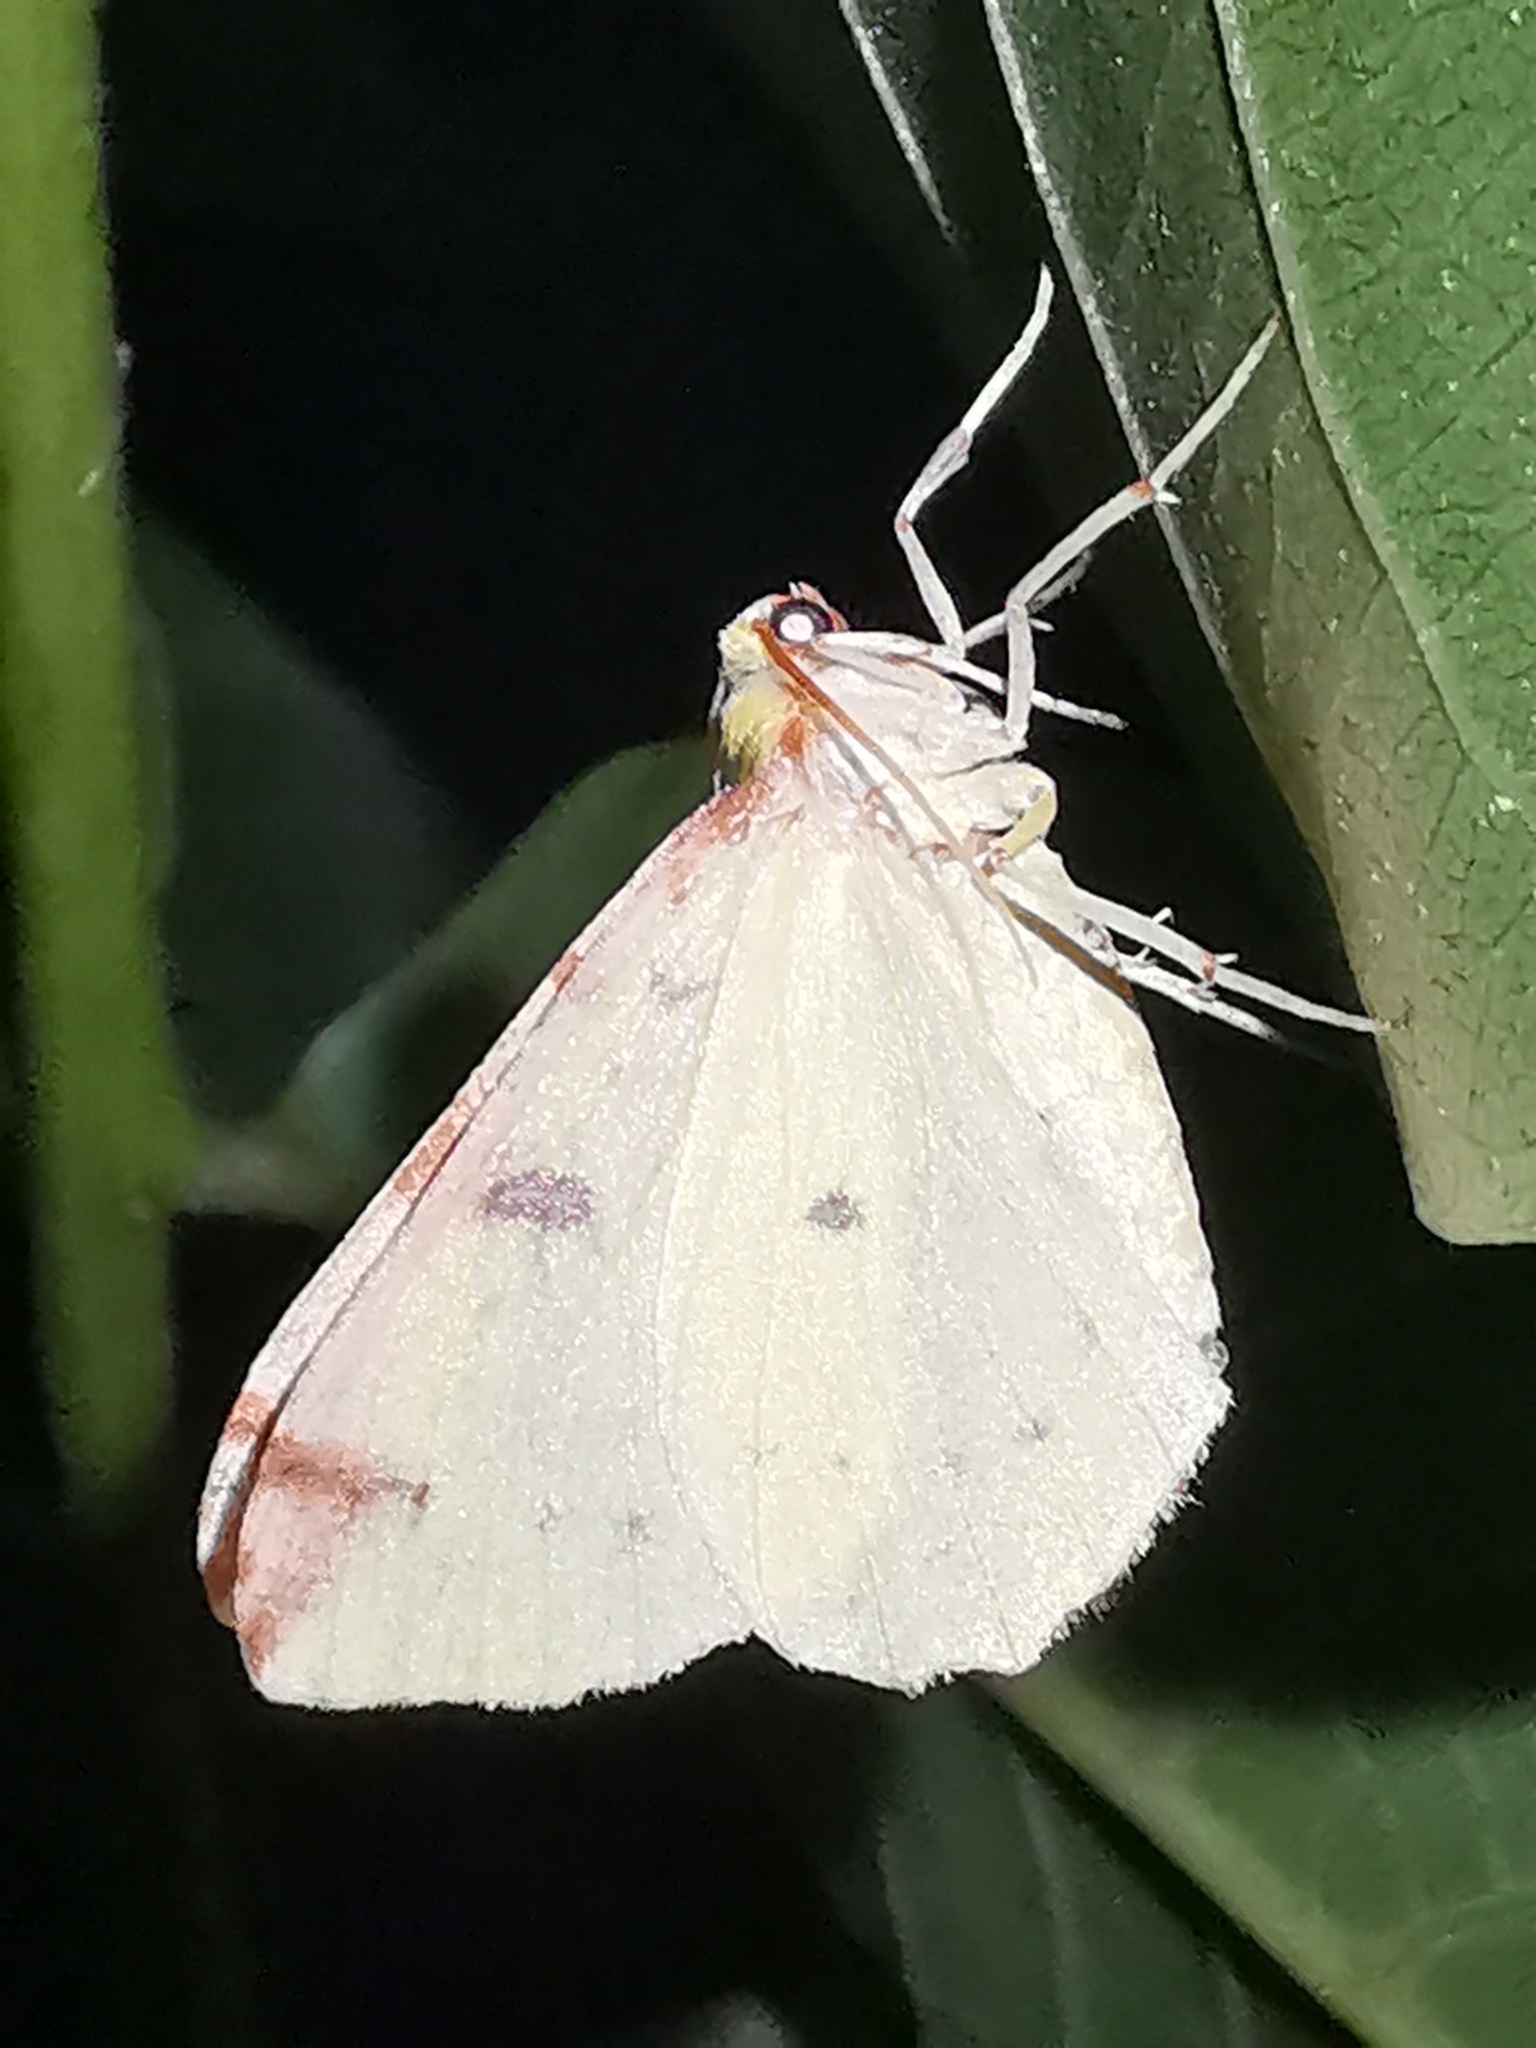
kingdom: Animalia
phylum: Arthropoda
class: Insecta
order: Lepidoptera
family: Geometridae
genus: Opisthograptis
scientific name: Opisthograptis luteolata
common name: Brimstone moth
